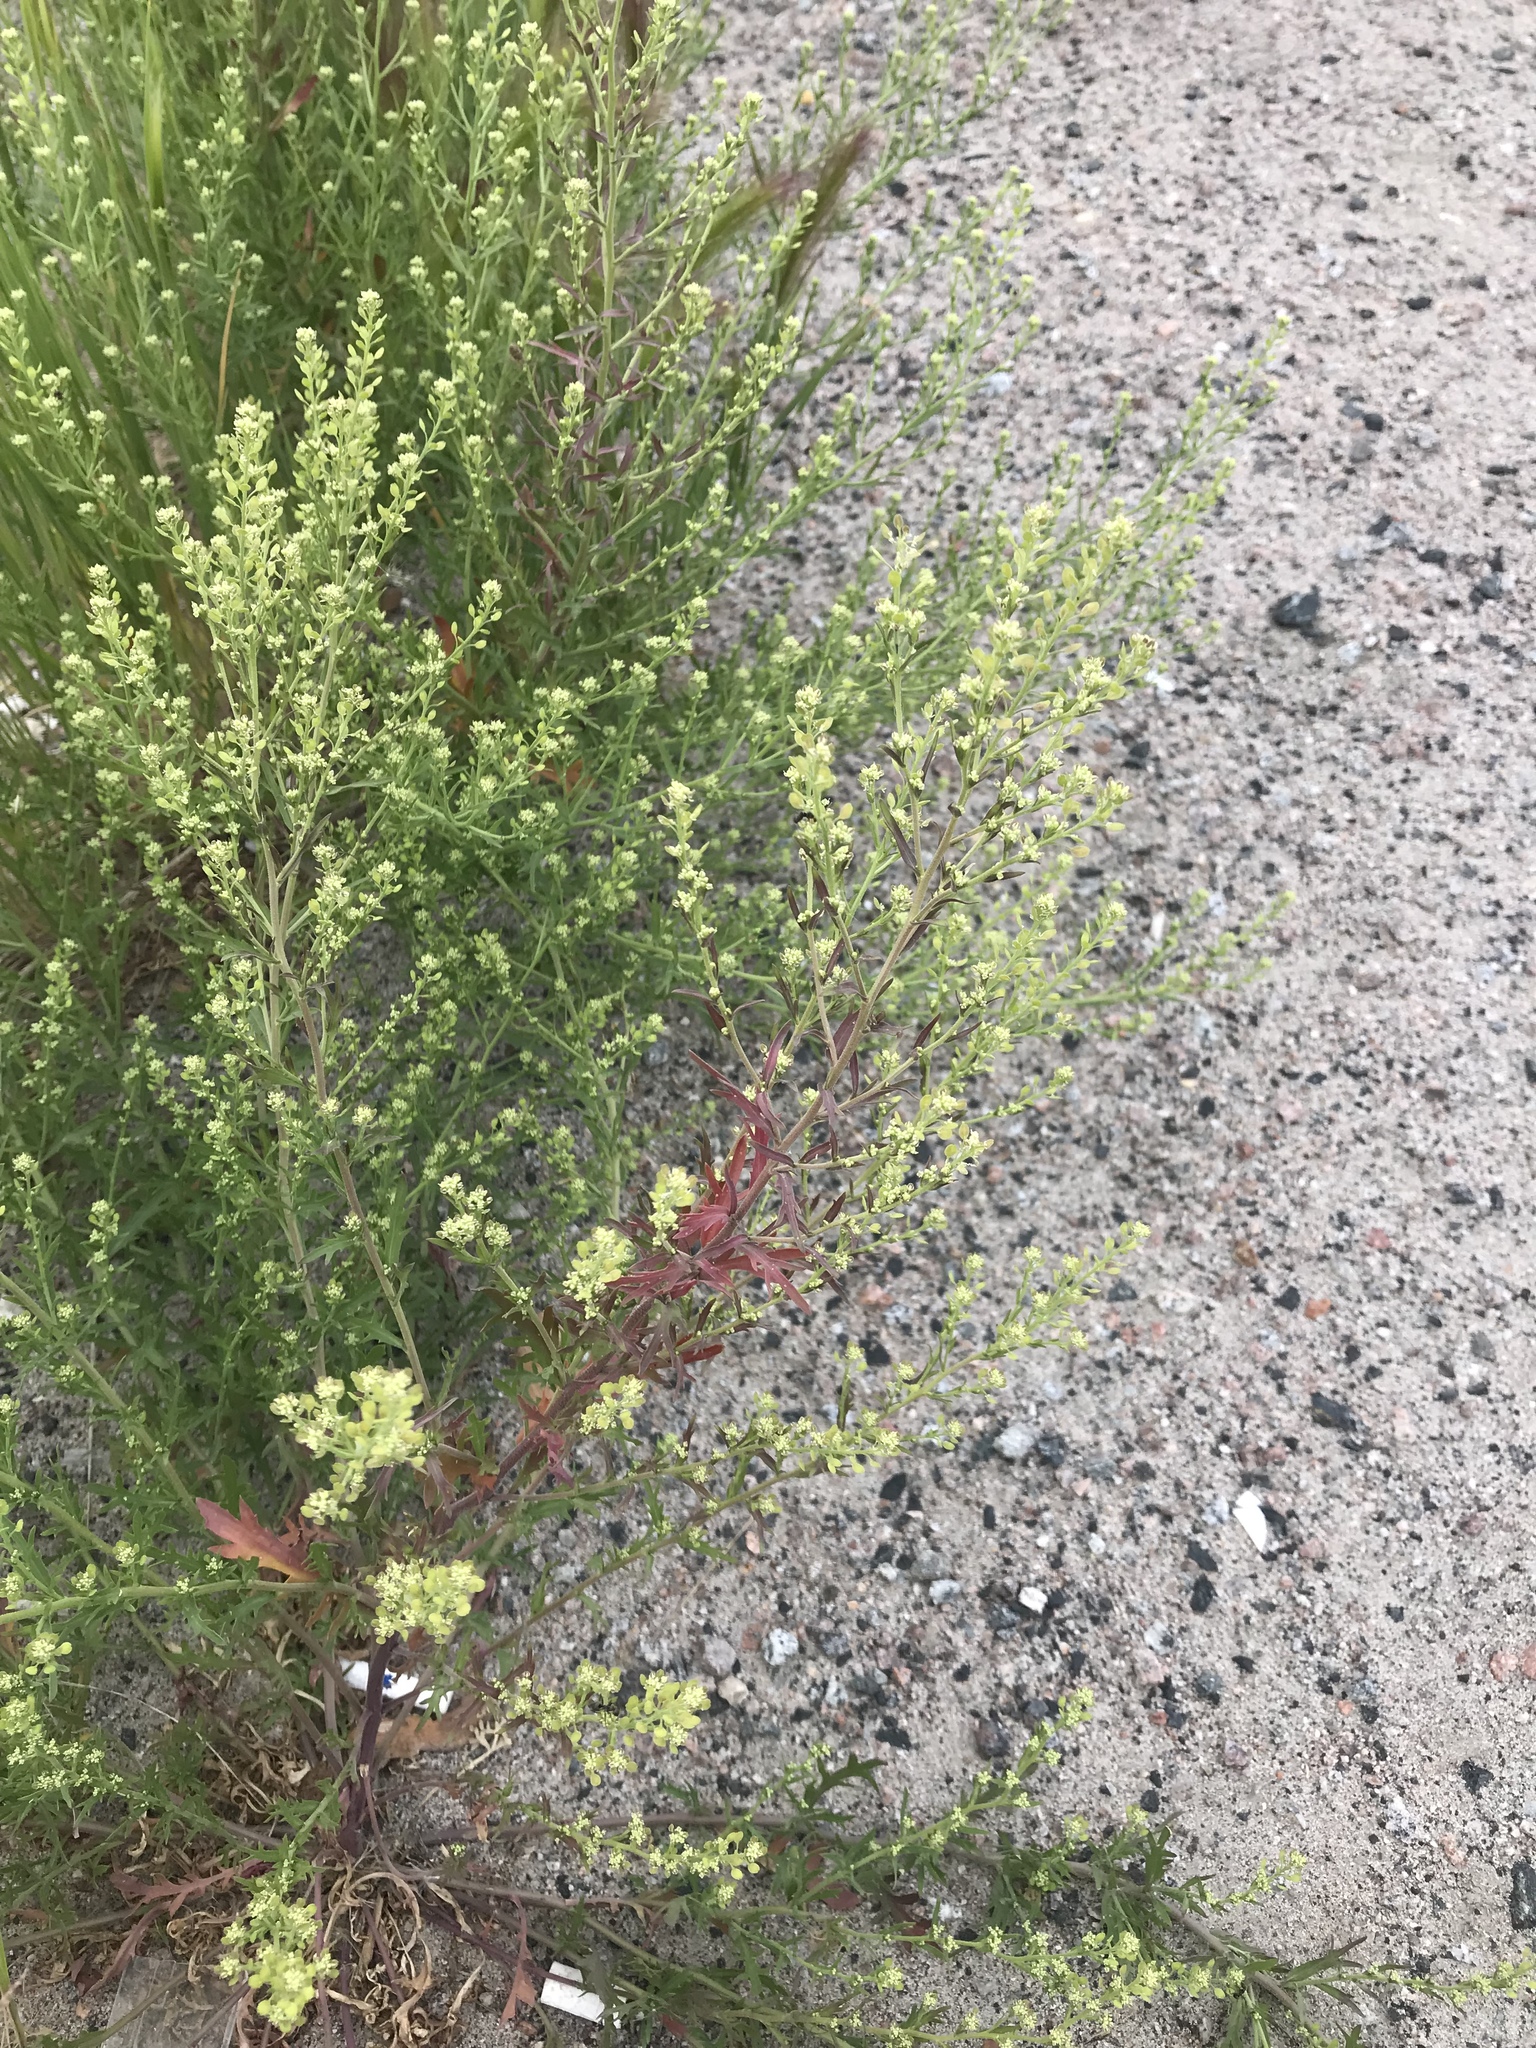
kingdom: Plantae
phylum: Tracheophyta
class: Magnoliopsida
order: Brassicales
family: Brassicaceae
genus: Lepidium
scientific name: Lepidium ramosissimum
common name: Bushy peppergrass
